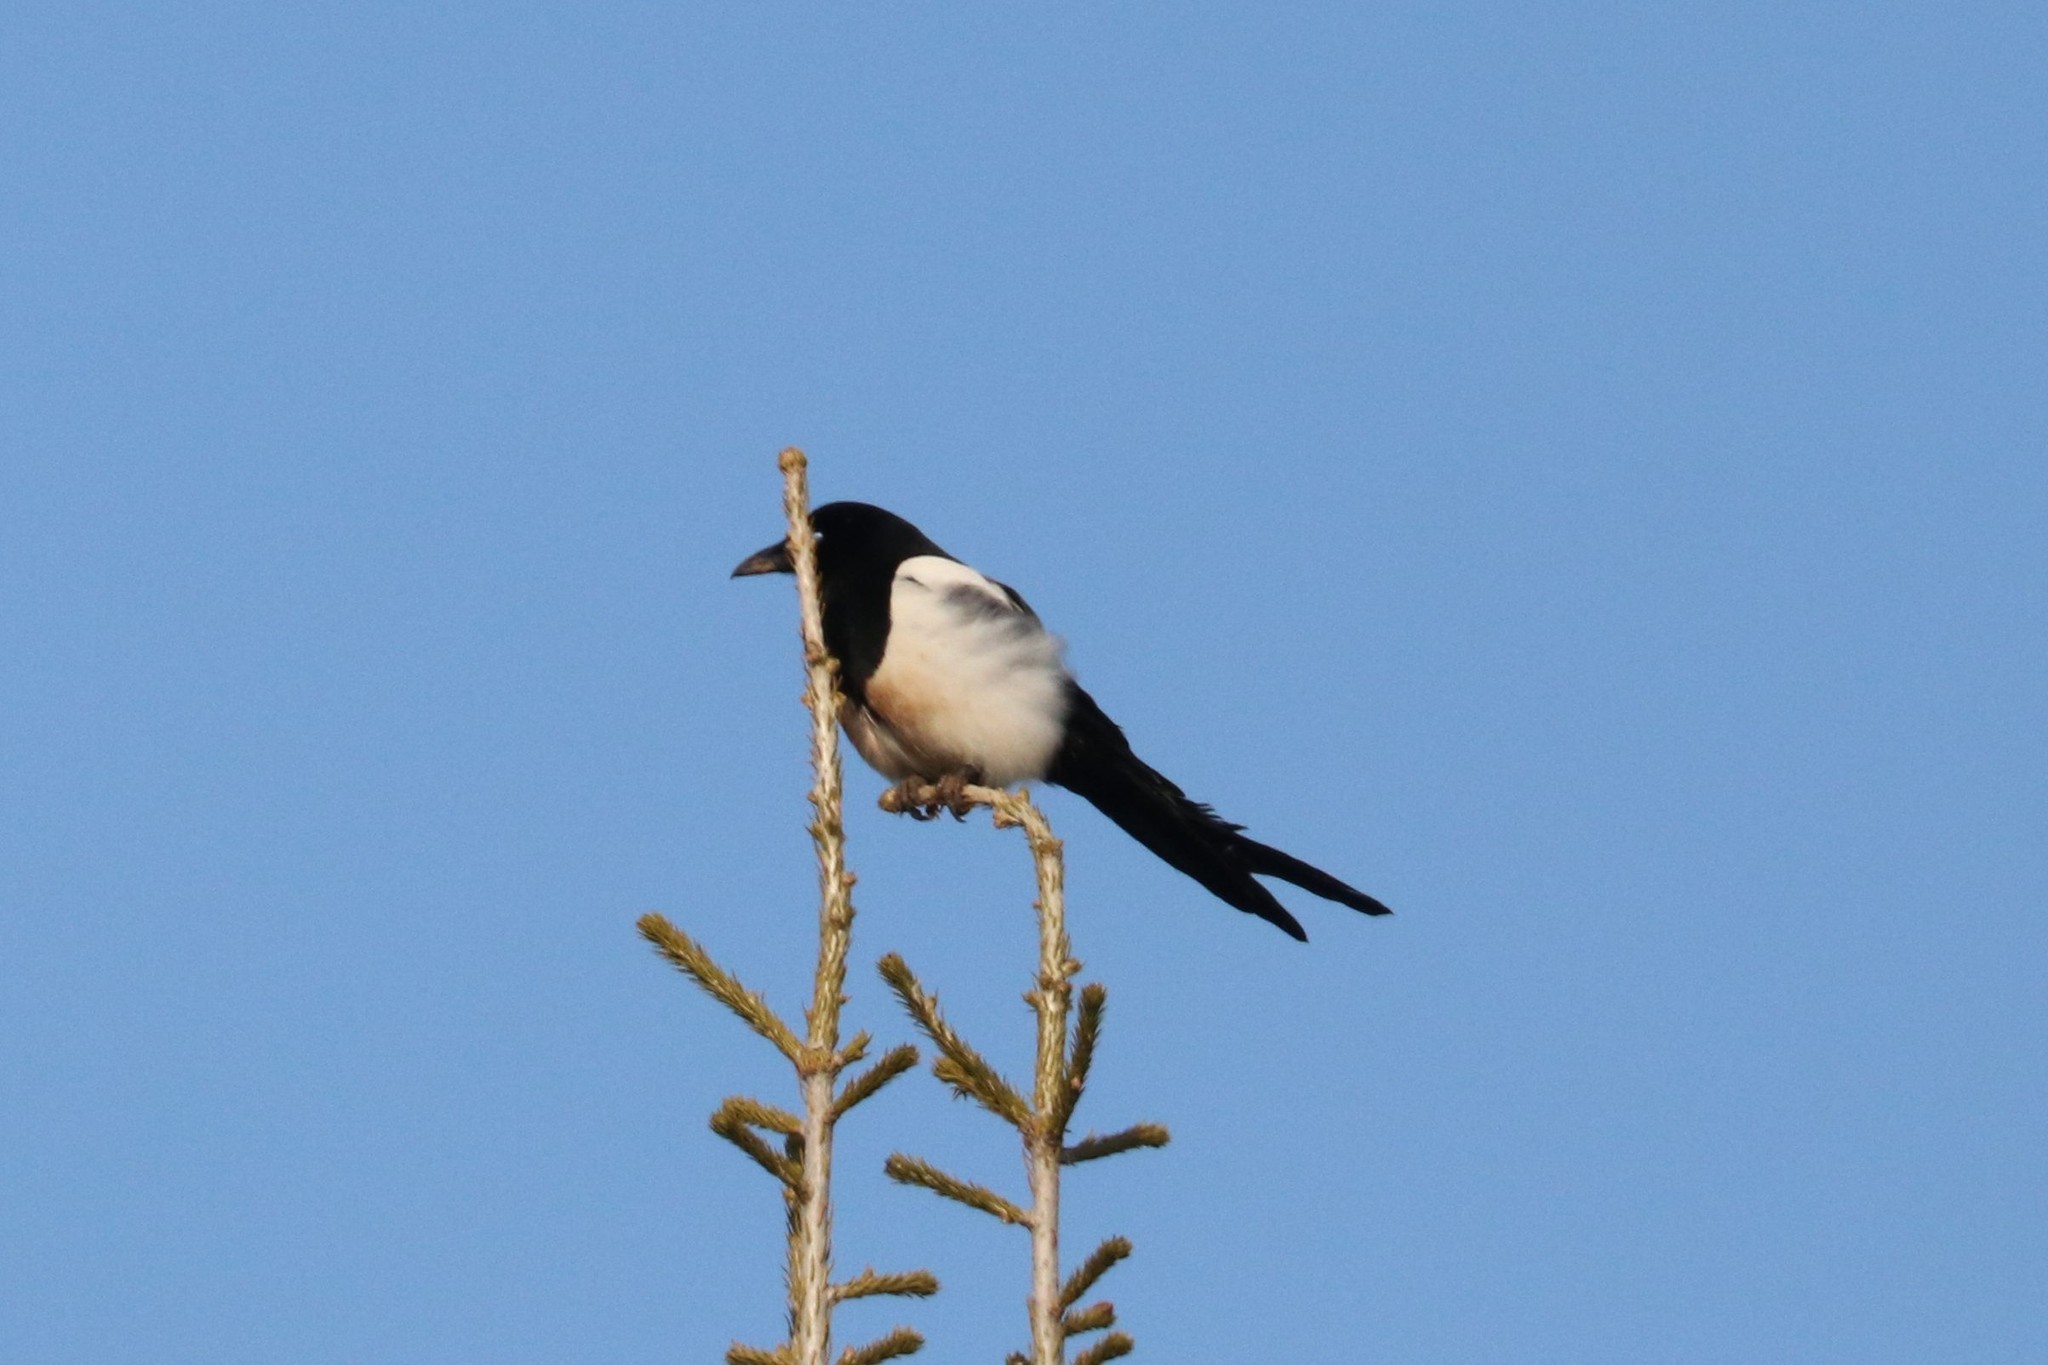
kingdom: Animalia
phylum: Chordata
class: Aves
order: Passeriformes
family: Corvidae
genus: Pica
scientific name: Pica pica
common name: Eurasian magpie
